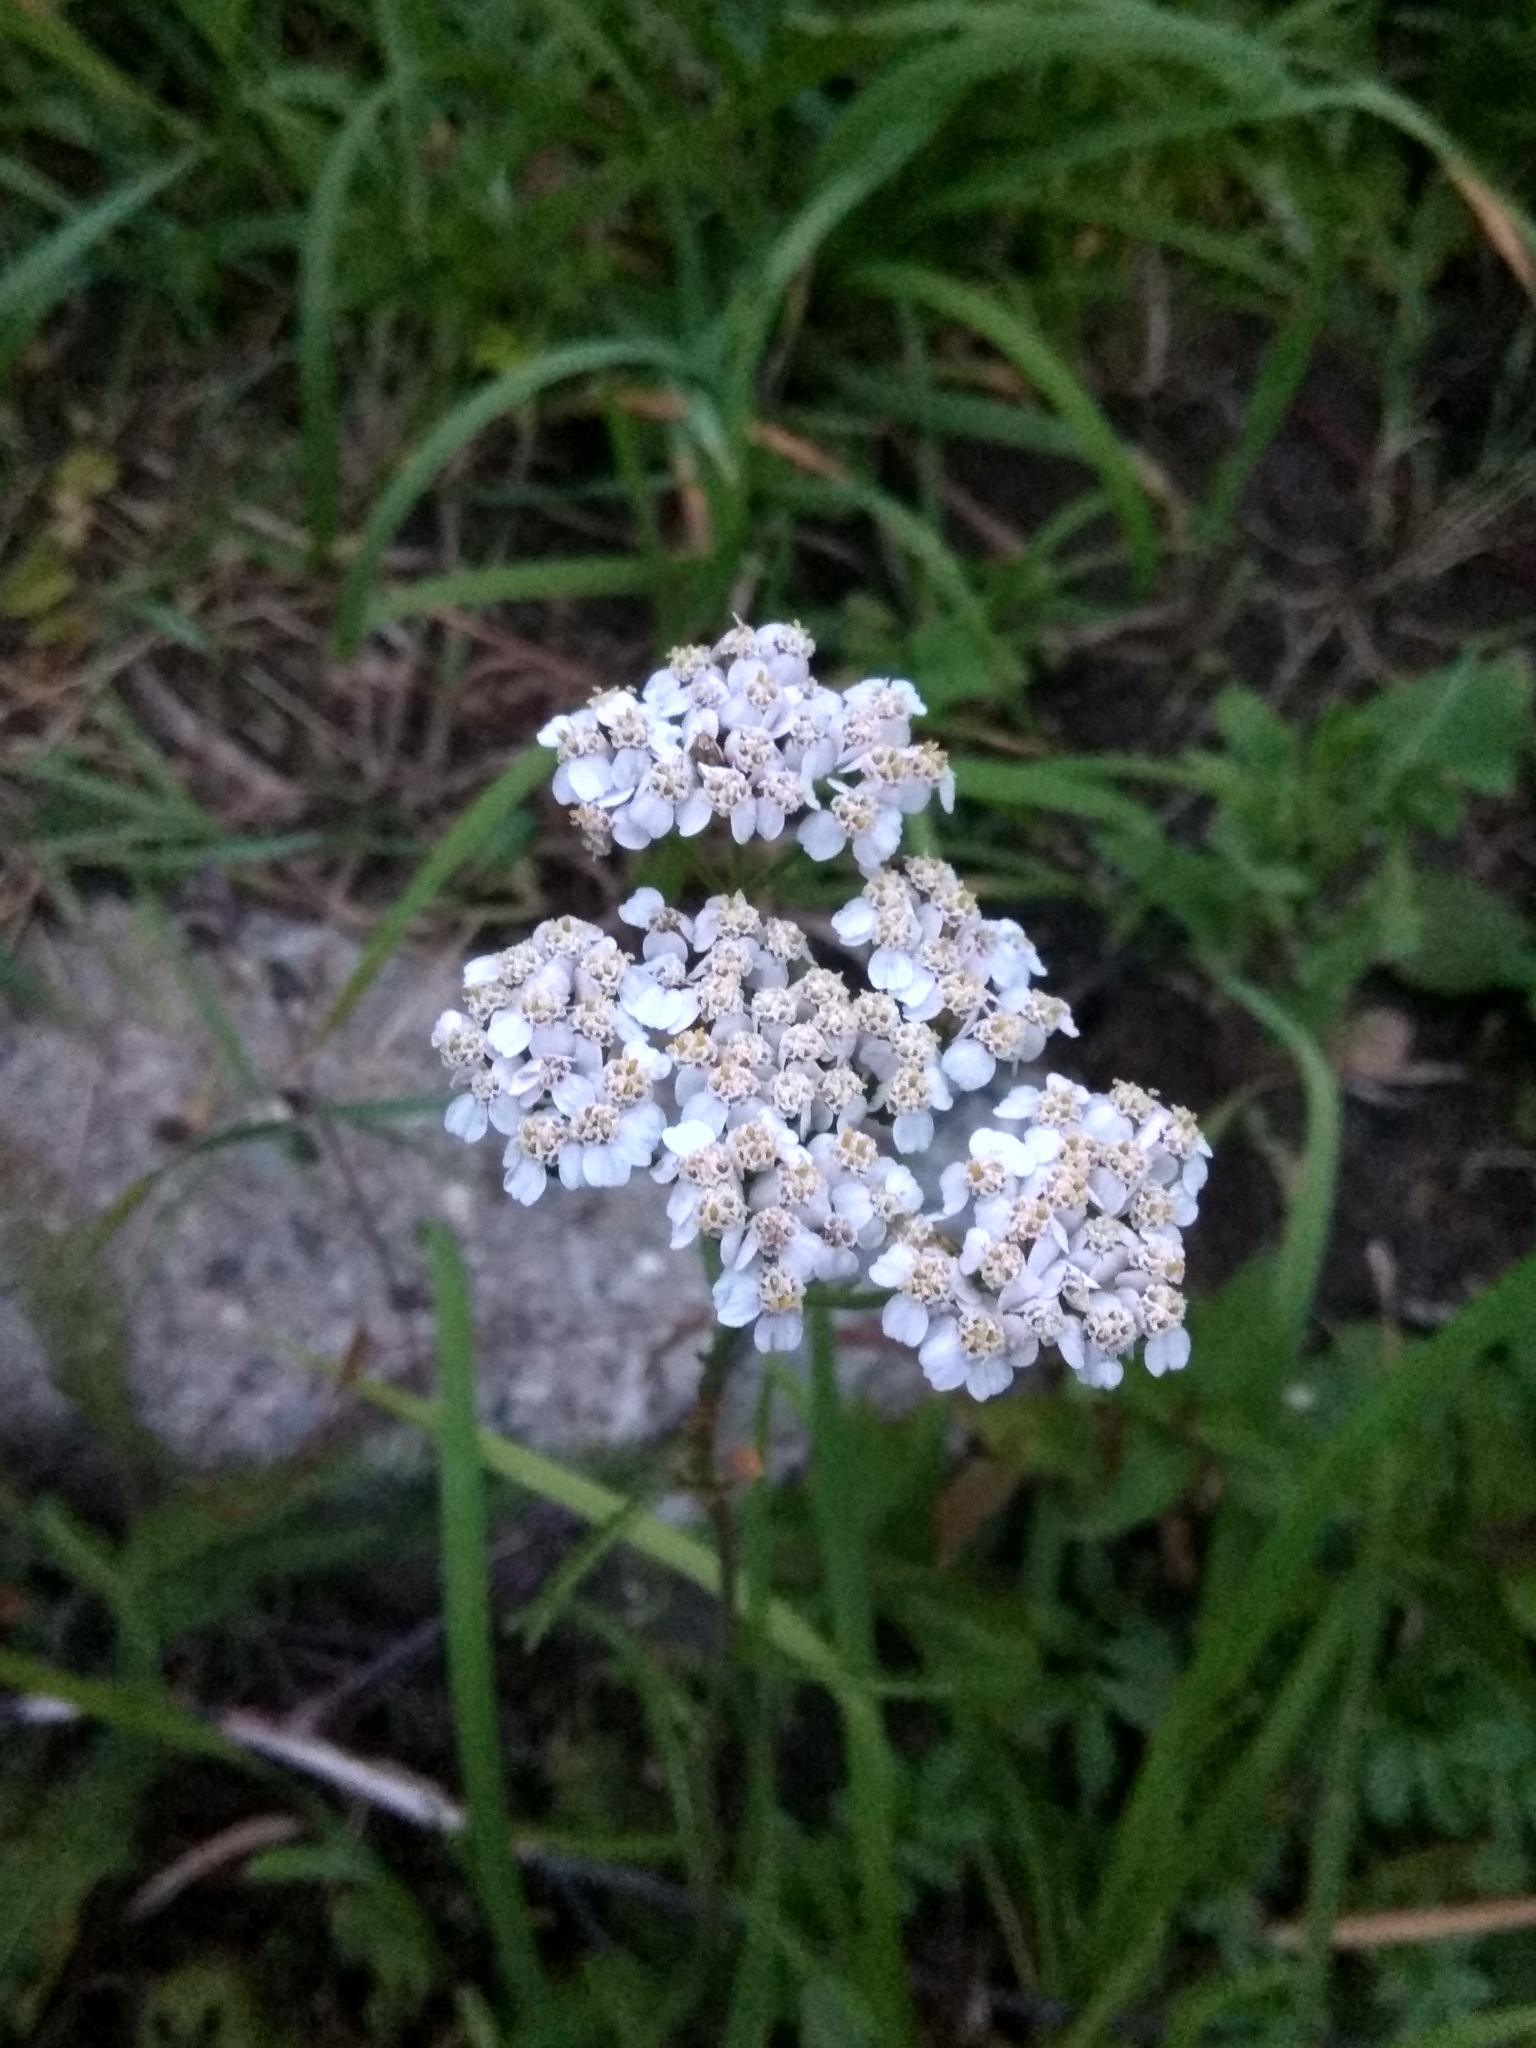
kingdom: Plantae
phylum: Tracheophyta
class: Magnoliopsida
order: Asterales
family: Asteraceae
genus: Achillea
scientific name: Achillea millefolium
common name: Yarrow
